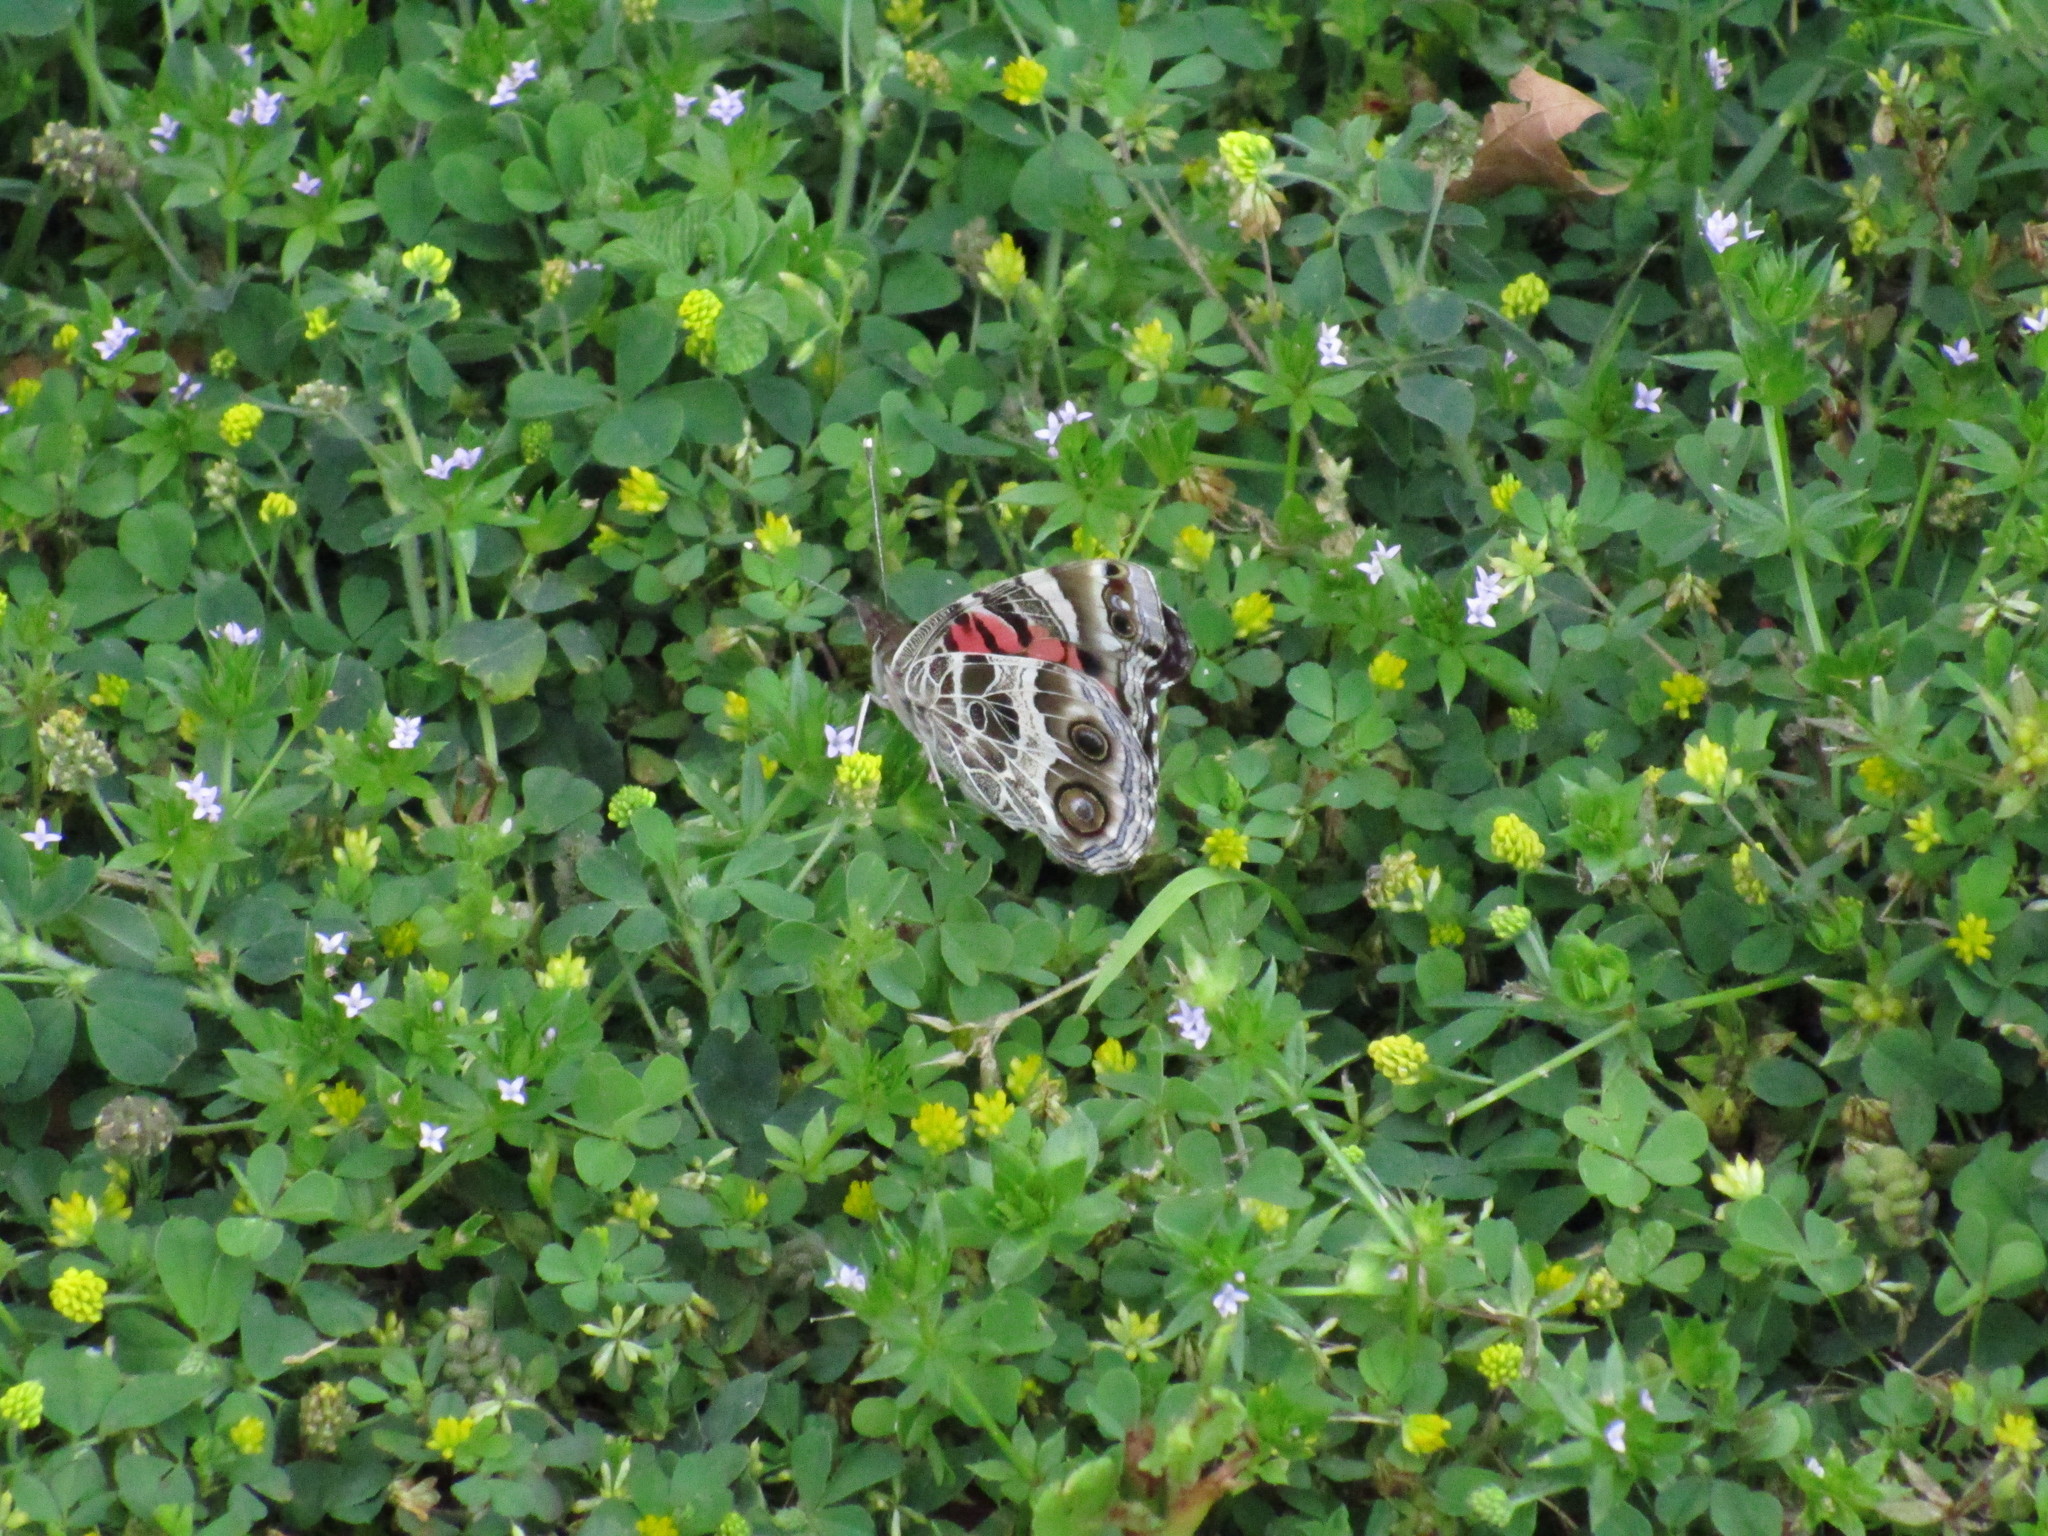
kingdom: Animalia
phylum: Arthropoda
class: Insecta
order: Lepidoptera
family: Nymphalidae
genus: Vanessa
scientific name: Vanessa virginiensis
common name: American lady
